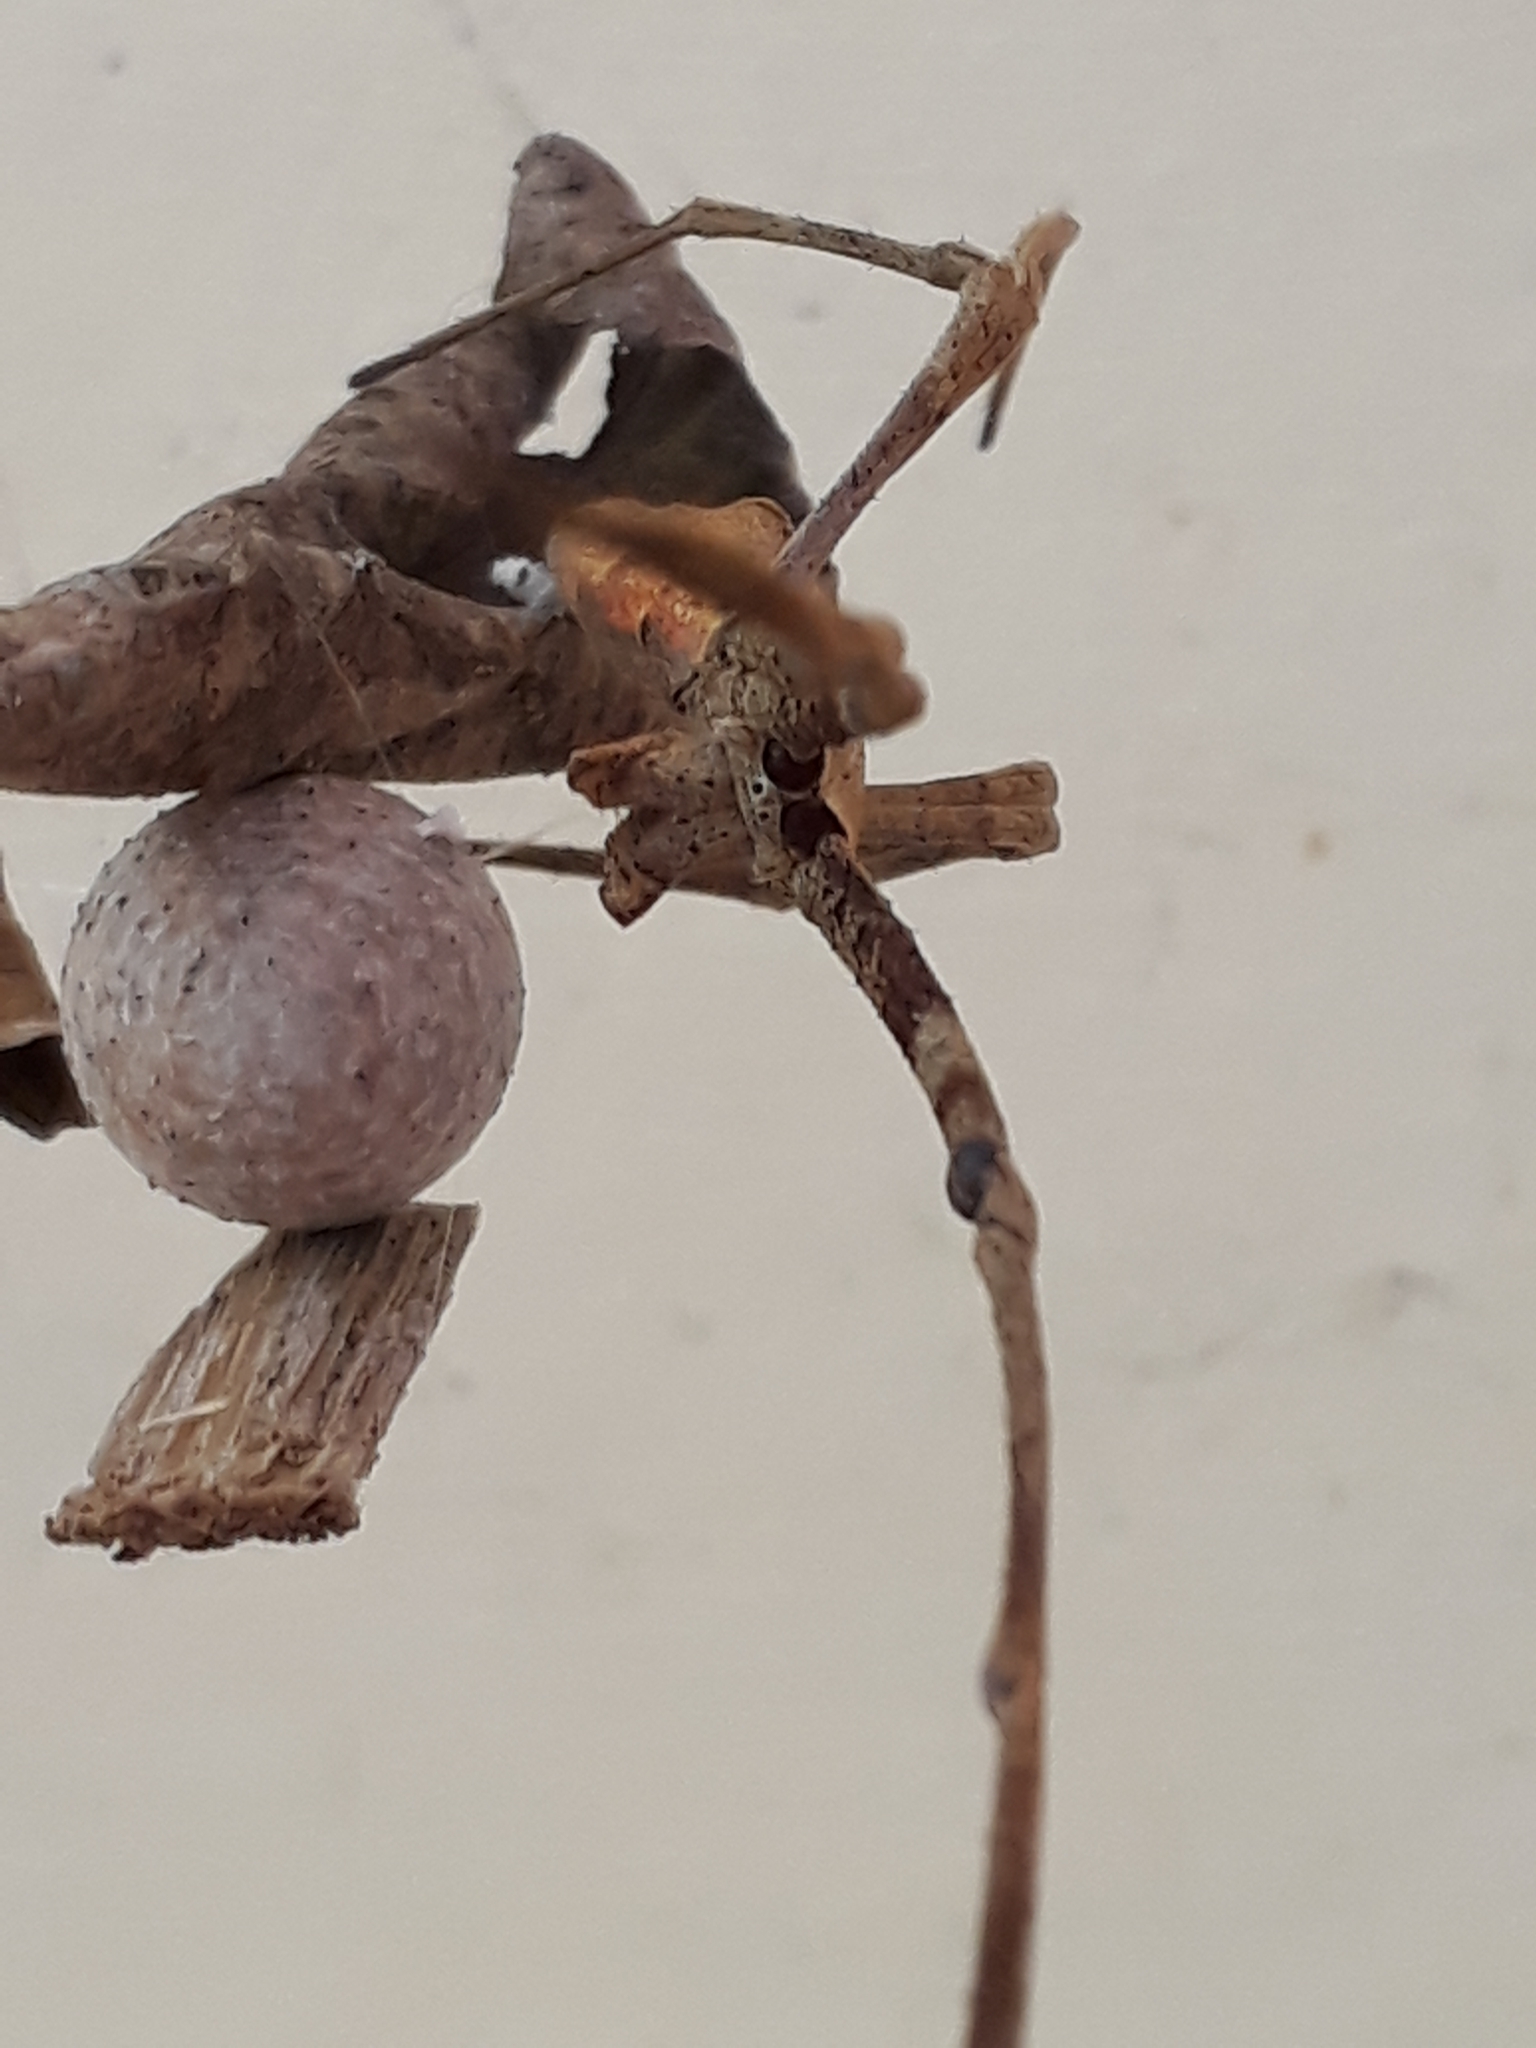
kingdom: Animalia
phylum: Arthropoda
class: Arachnida
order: Araneae
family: Deinopidae
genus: Deinopis
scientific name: Deinopis subrufa
